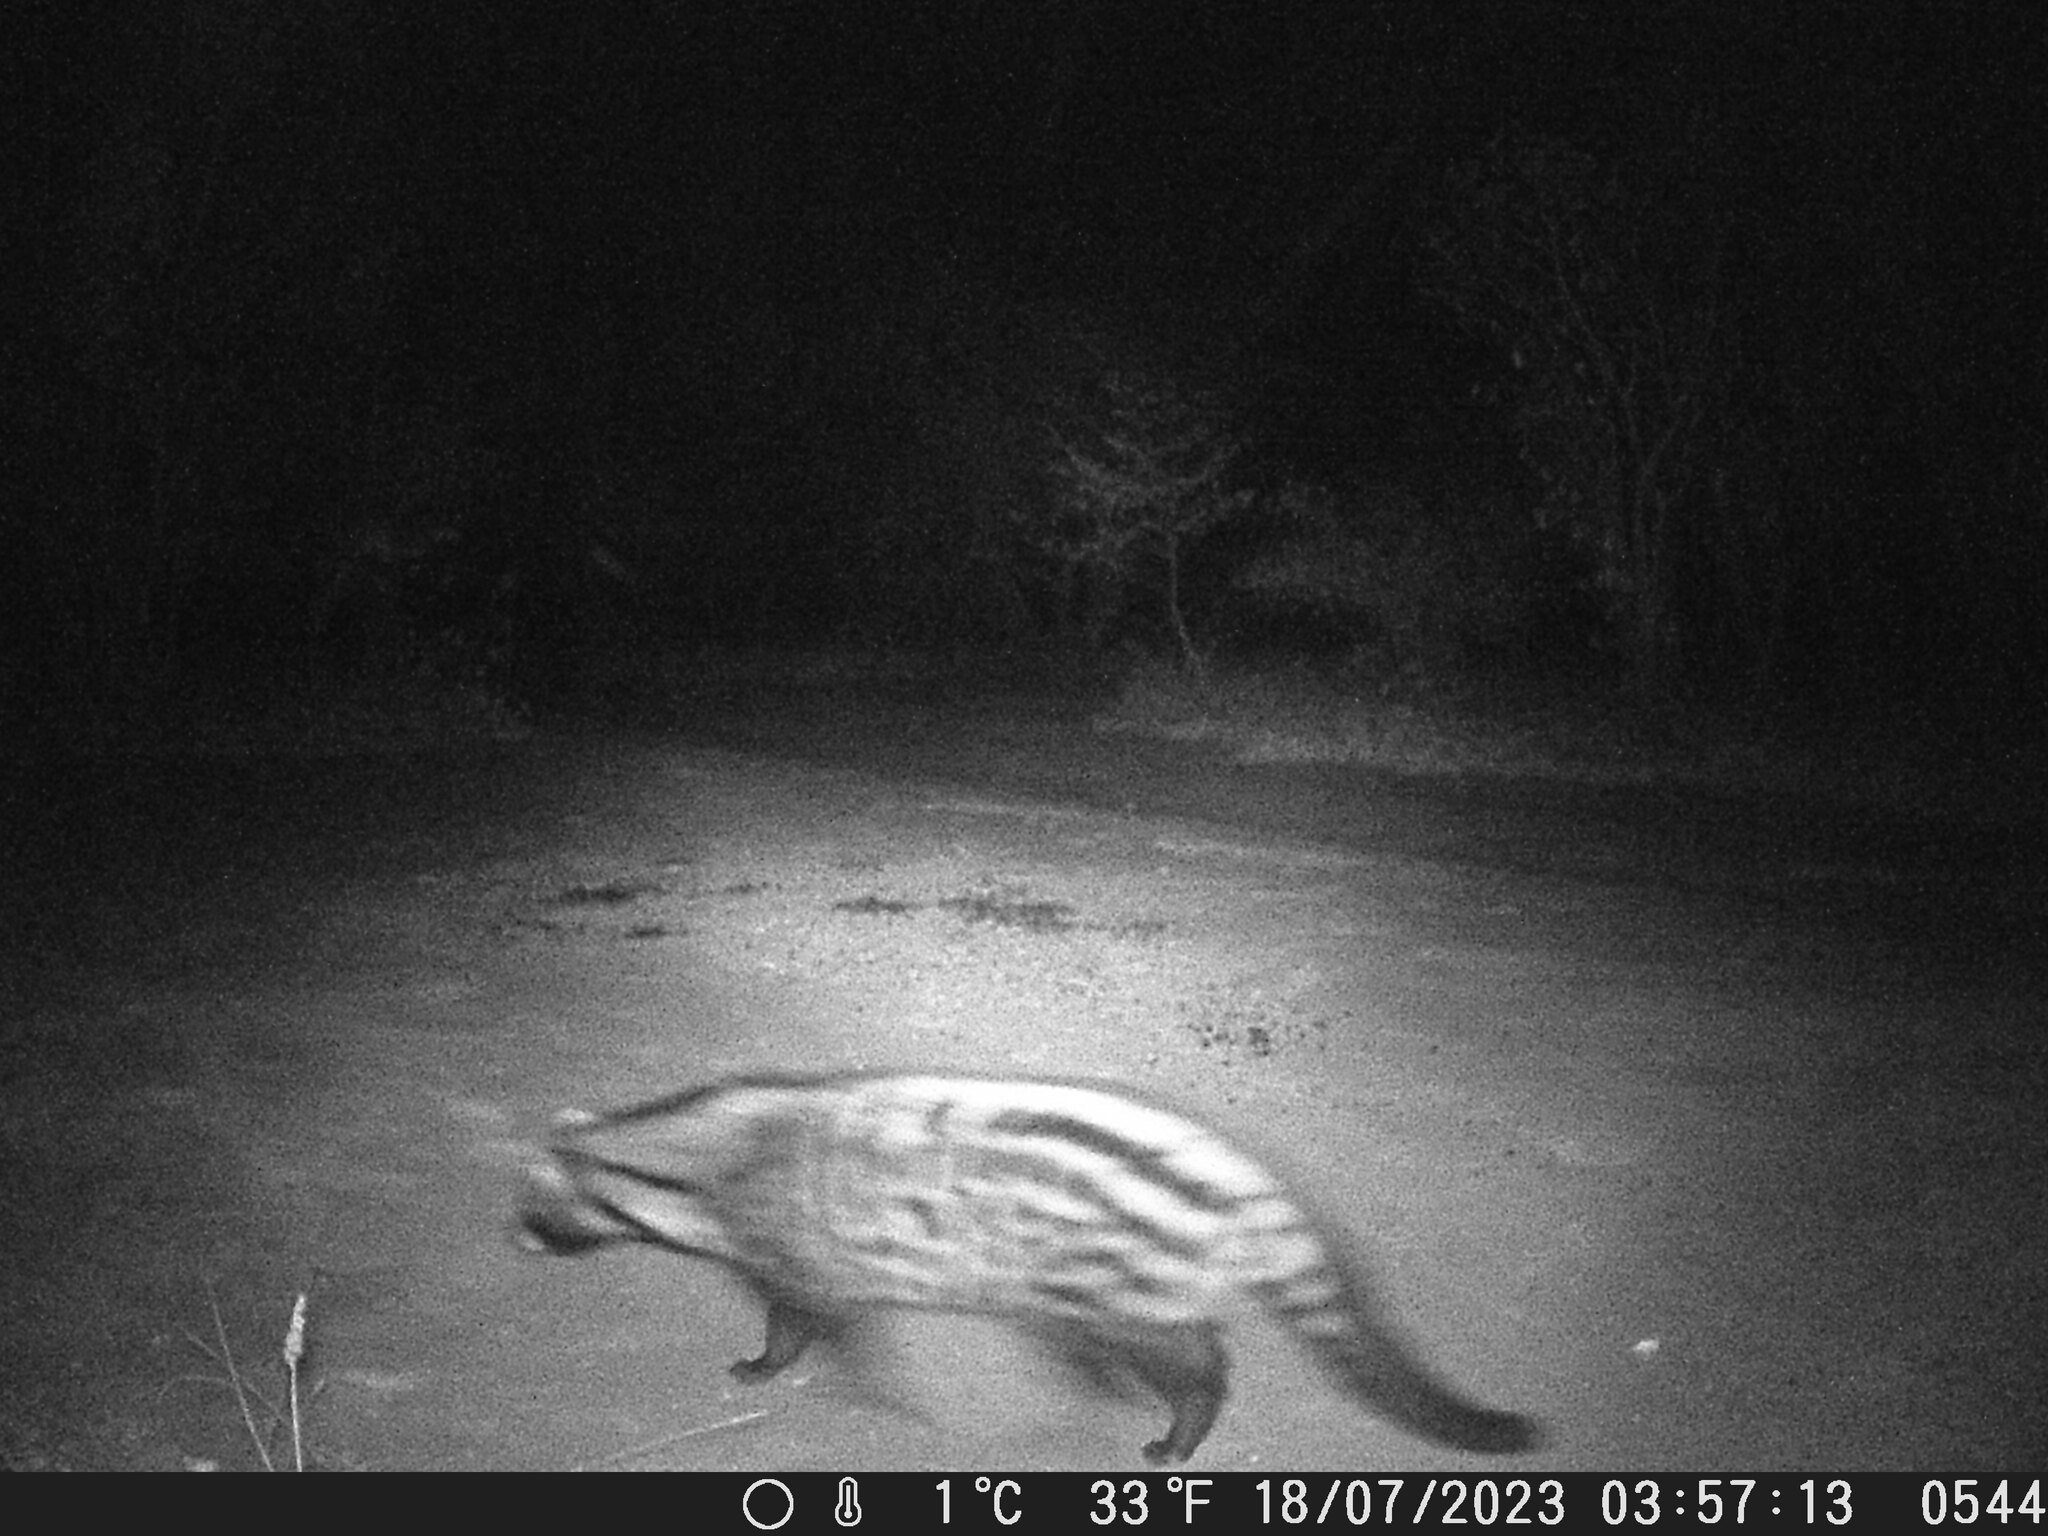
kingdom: Animalia
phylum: Chordata
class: Mammalia
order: Carnivora
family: Viverridae
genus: Civettictis
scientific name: Civettictis civetta
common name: African civet
